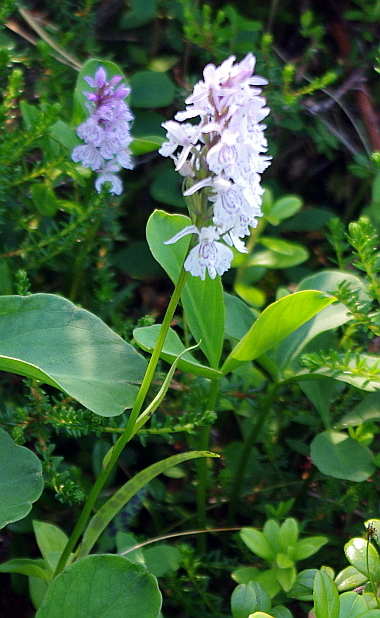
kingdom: Plantae
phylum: Tracheophyta
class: Liliopsida
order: Asparagales
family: Orchidaceae
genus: Dactylorhiza
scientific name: Dactylorhiza maculata
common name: Heath spotted-orchid
